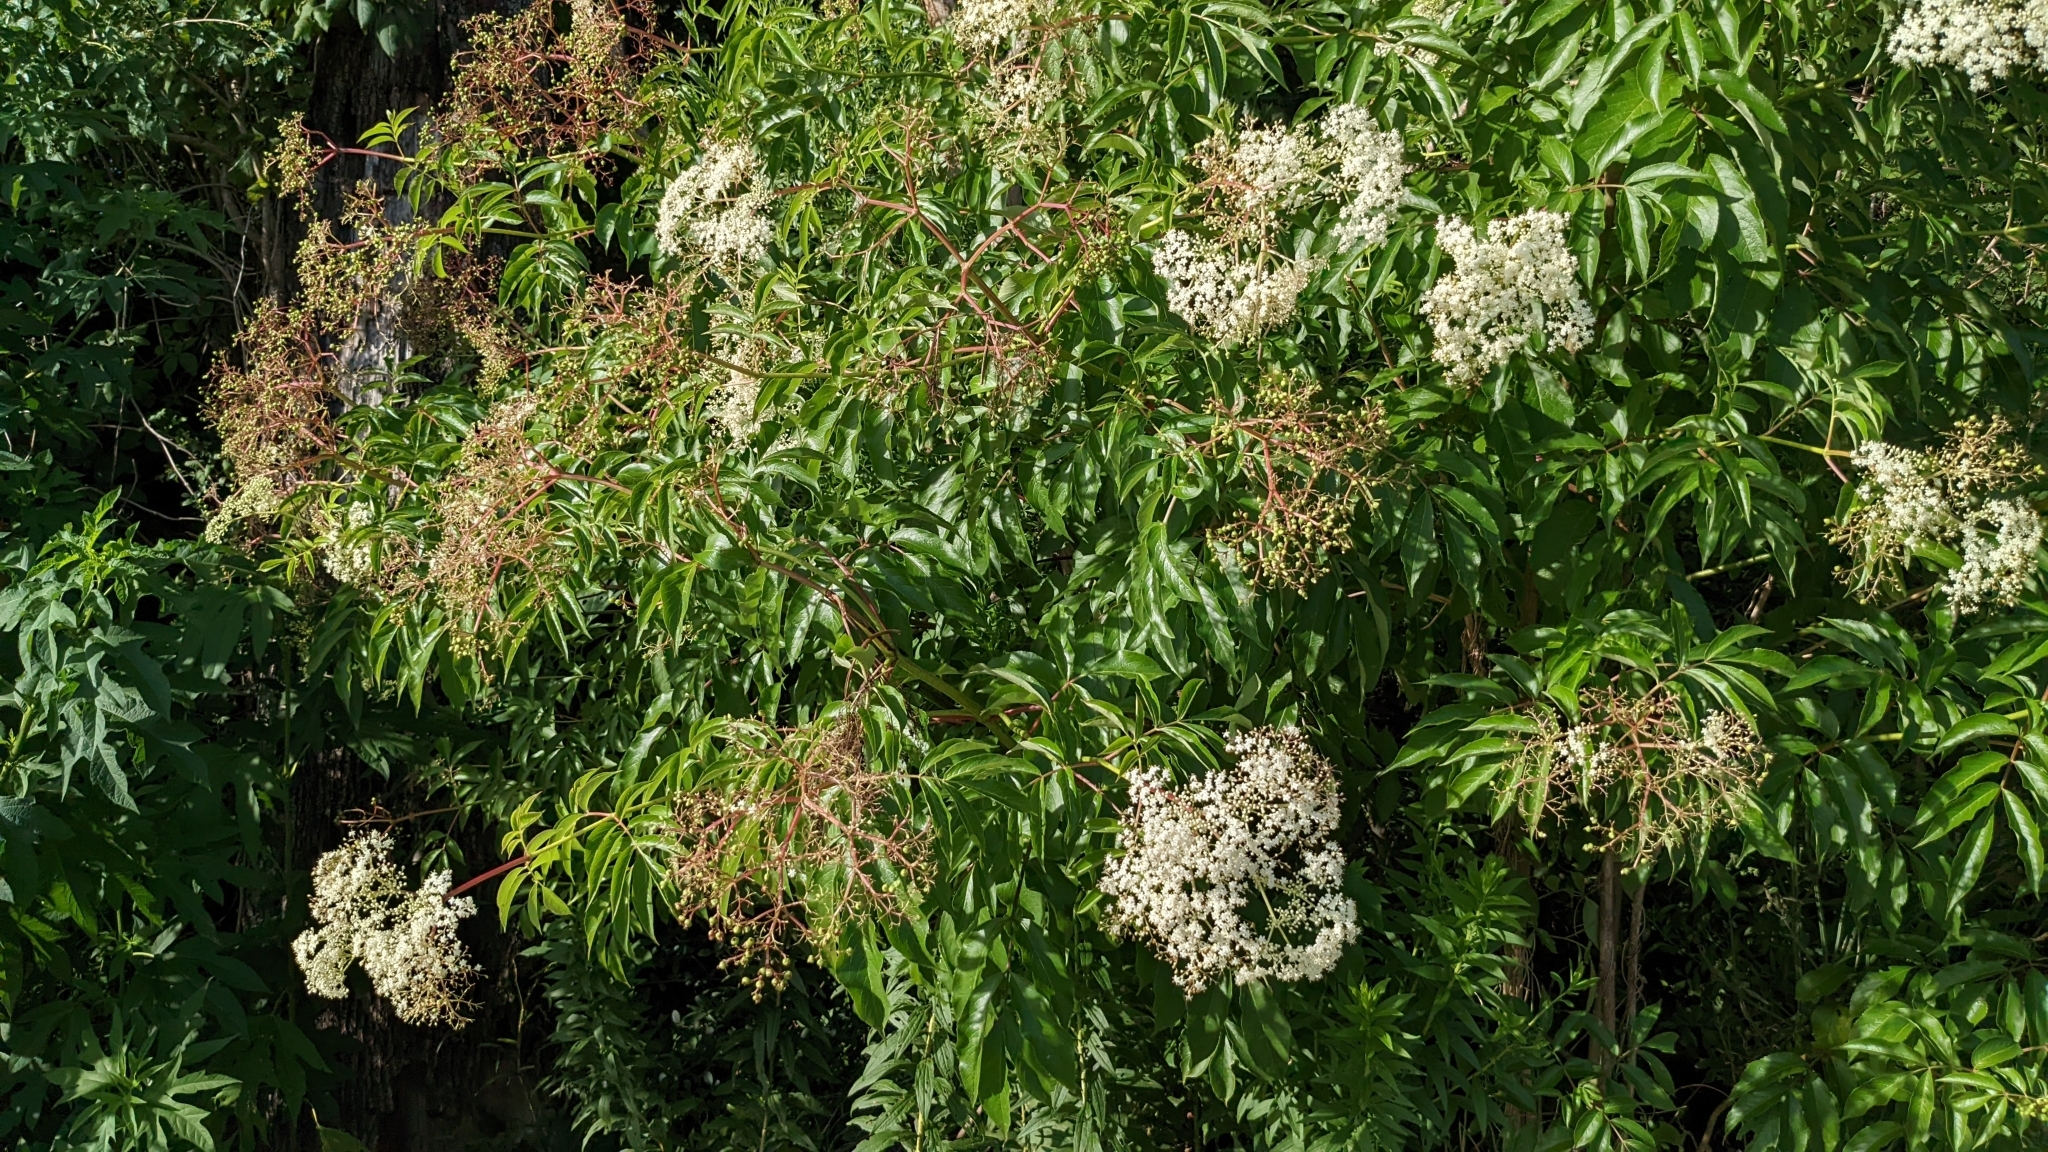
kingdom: Plantae
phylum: Tracheophyta
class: Magnoliopsida
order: Dipsacales
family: Viburnaceae
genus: Sambucus
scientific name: Sambucus canadensis
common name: American elder
